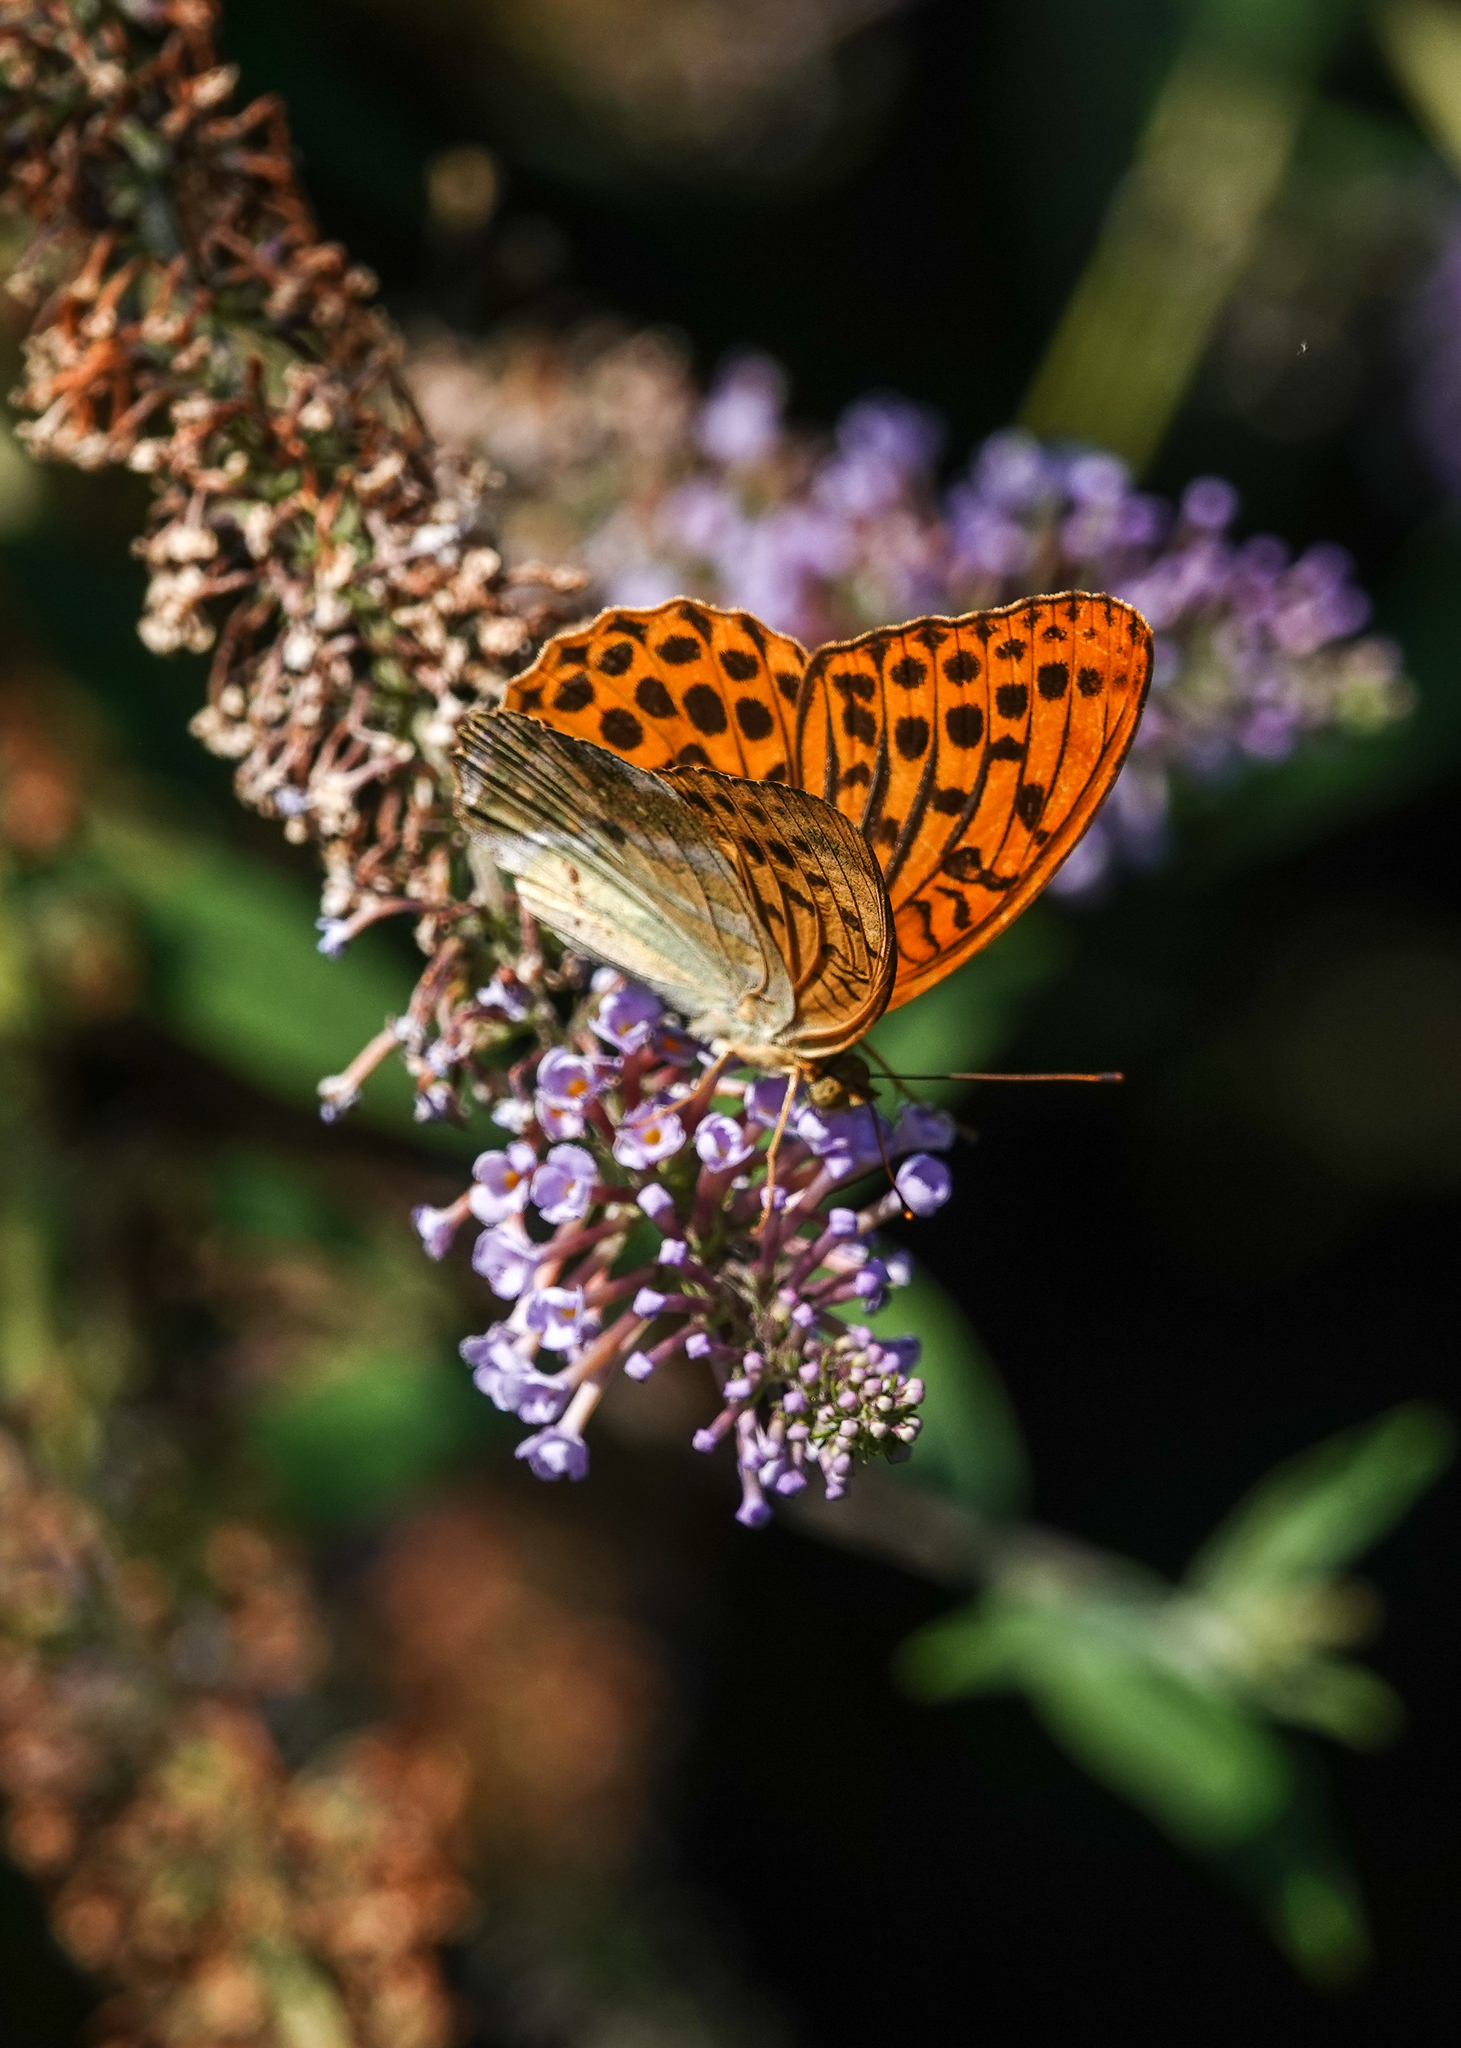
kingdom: Animalia
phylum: Arthropoda
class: Insecta
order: Lepidoptera
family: Nymphalidae
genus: Argynnis
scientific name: Argynnis paphia
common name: Silver-washed fritillary
